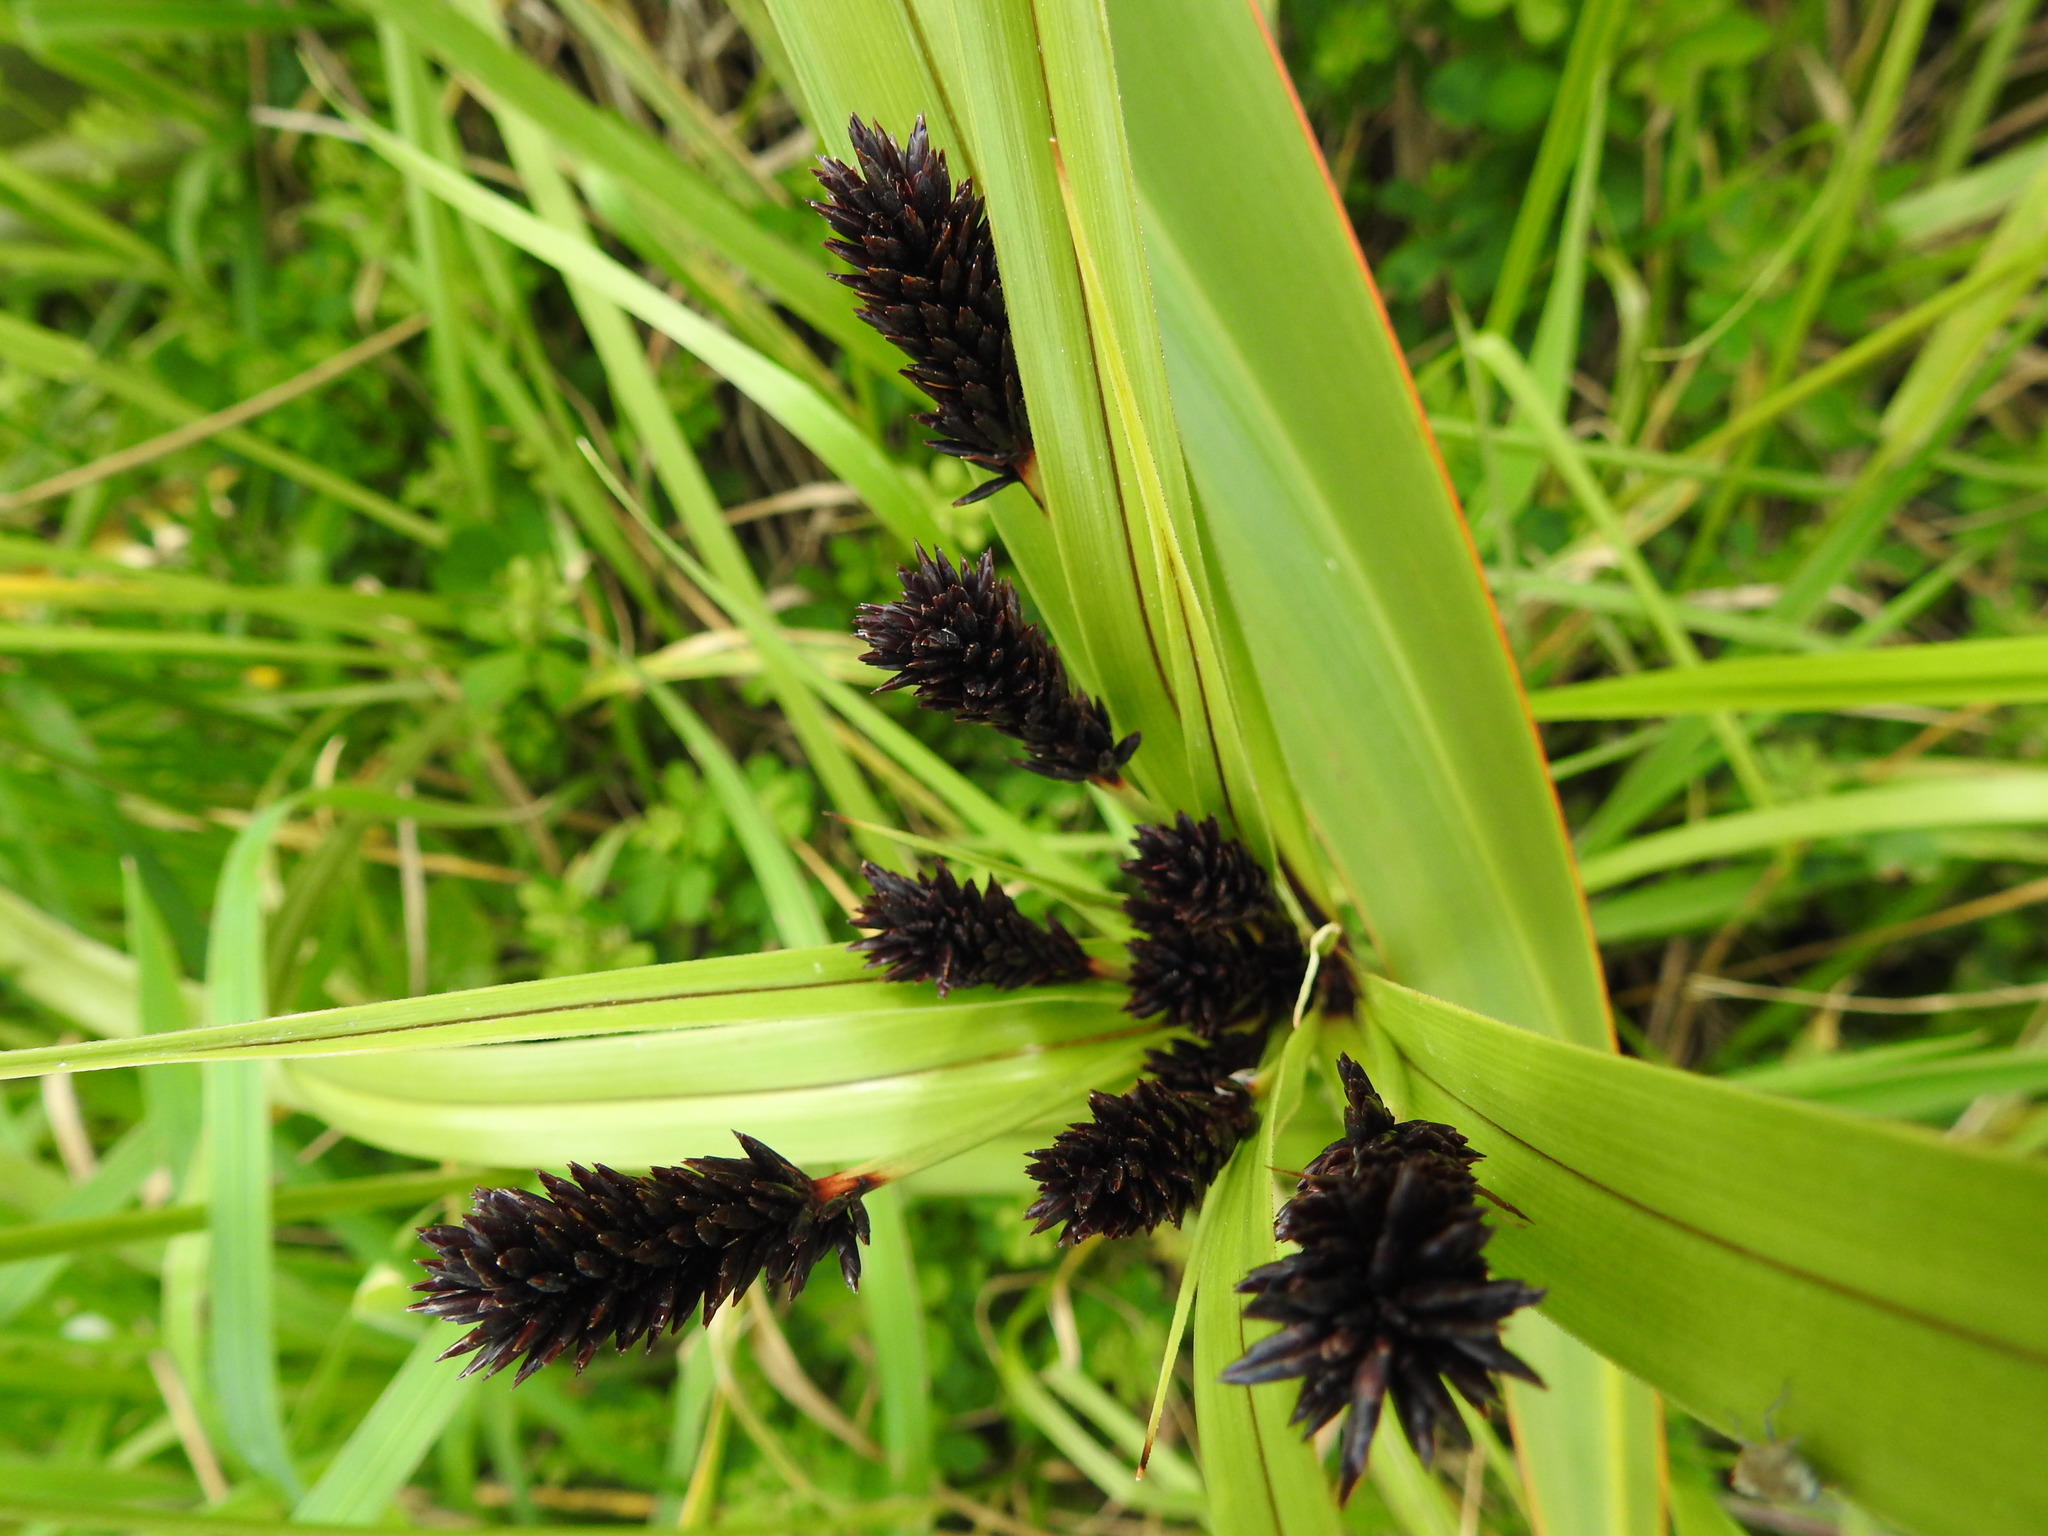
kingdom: Plantae
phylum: Tracheophyta
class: Liliopsida
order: Poales
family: Cyperaceae
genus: Cyperus
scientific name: Cyperus ustulatus
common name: Giant umbrella-sedge
